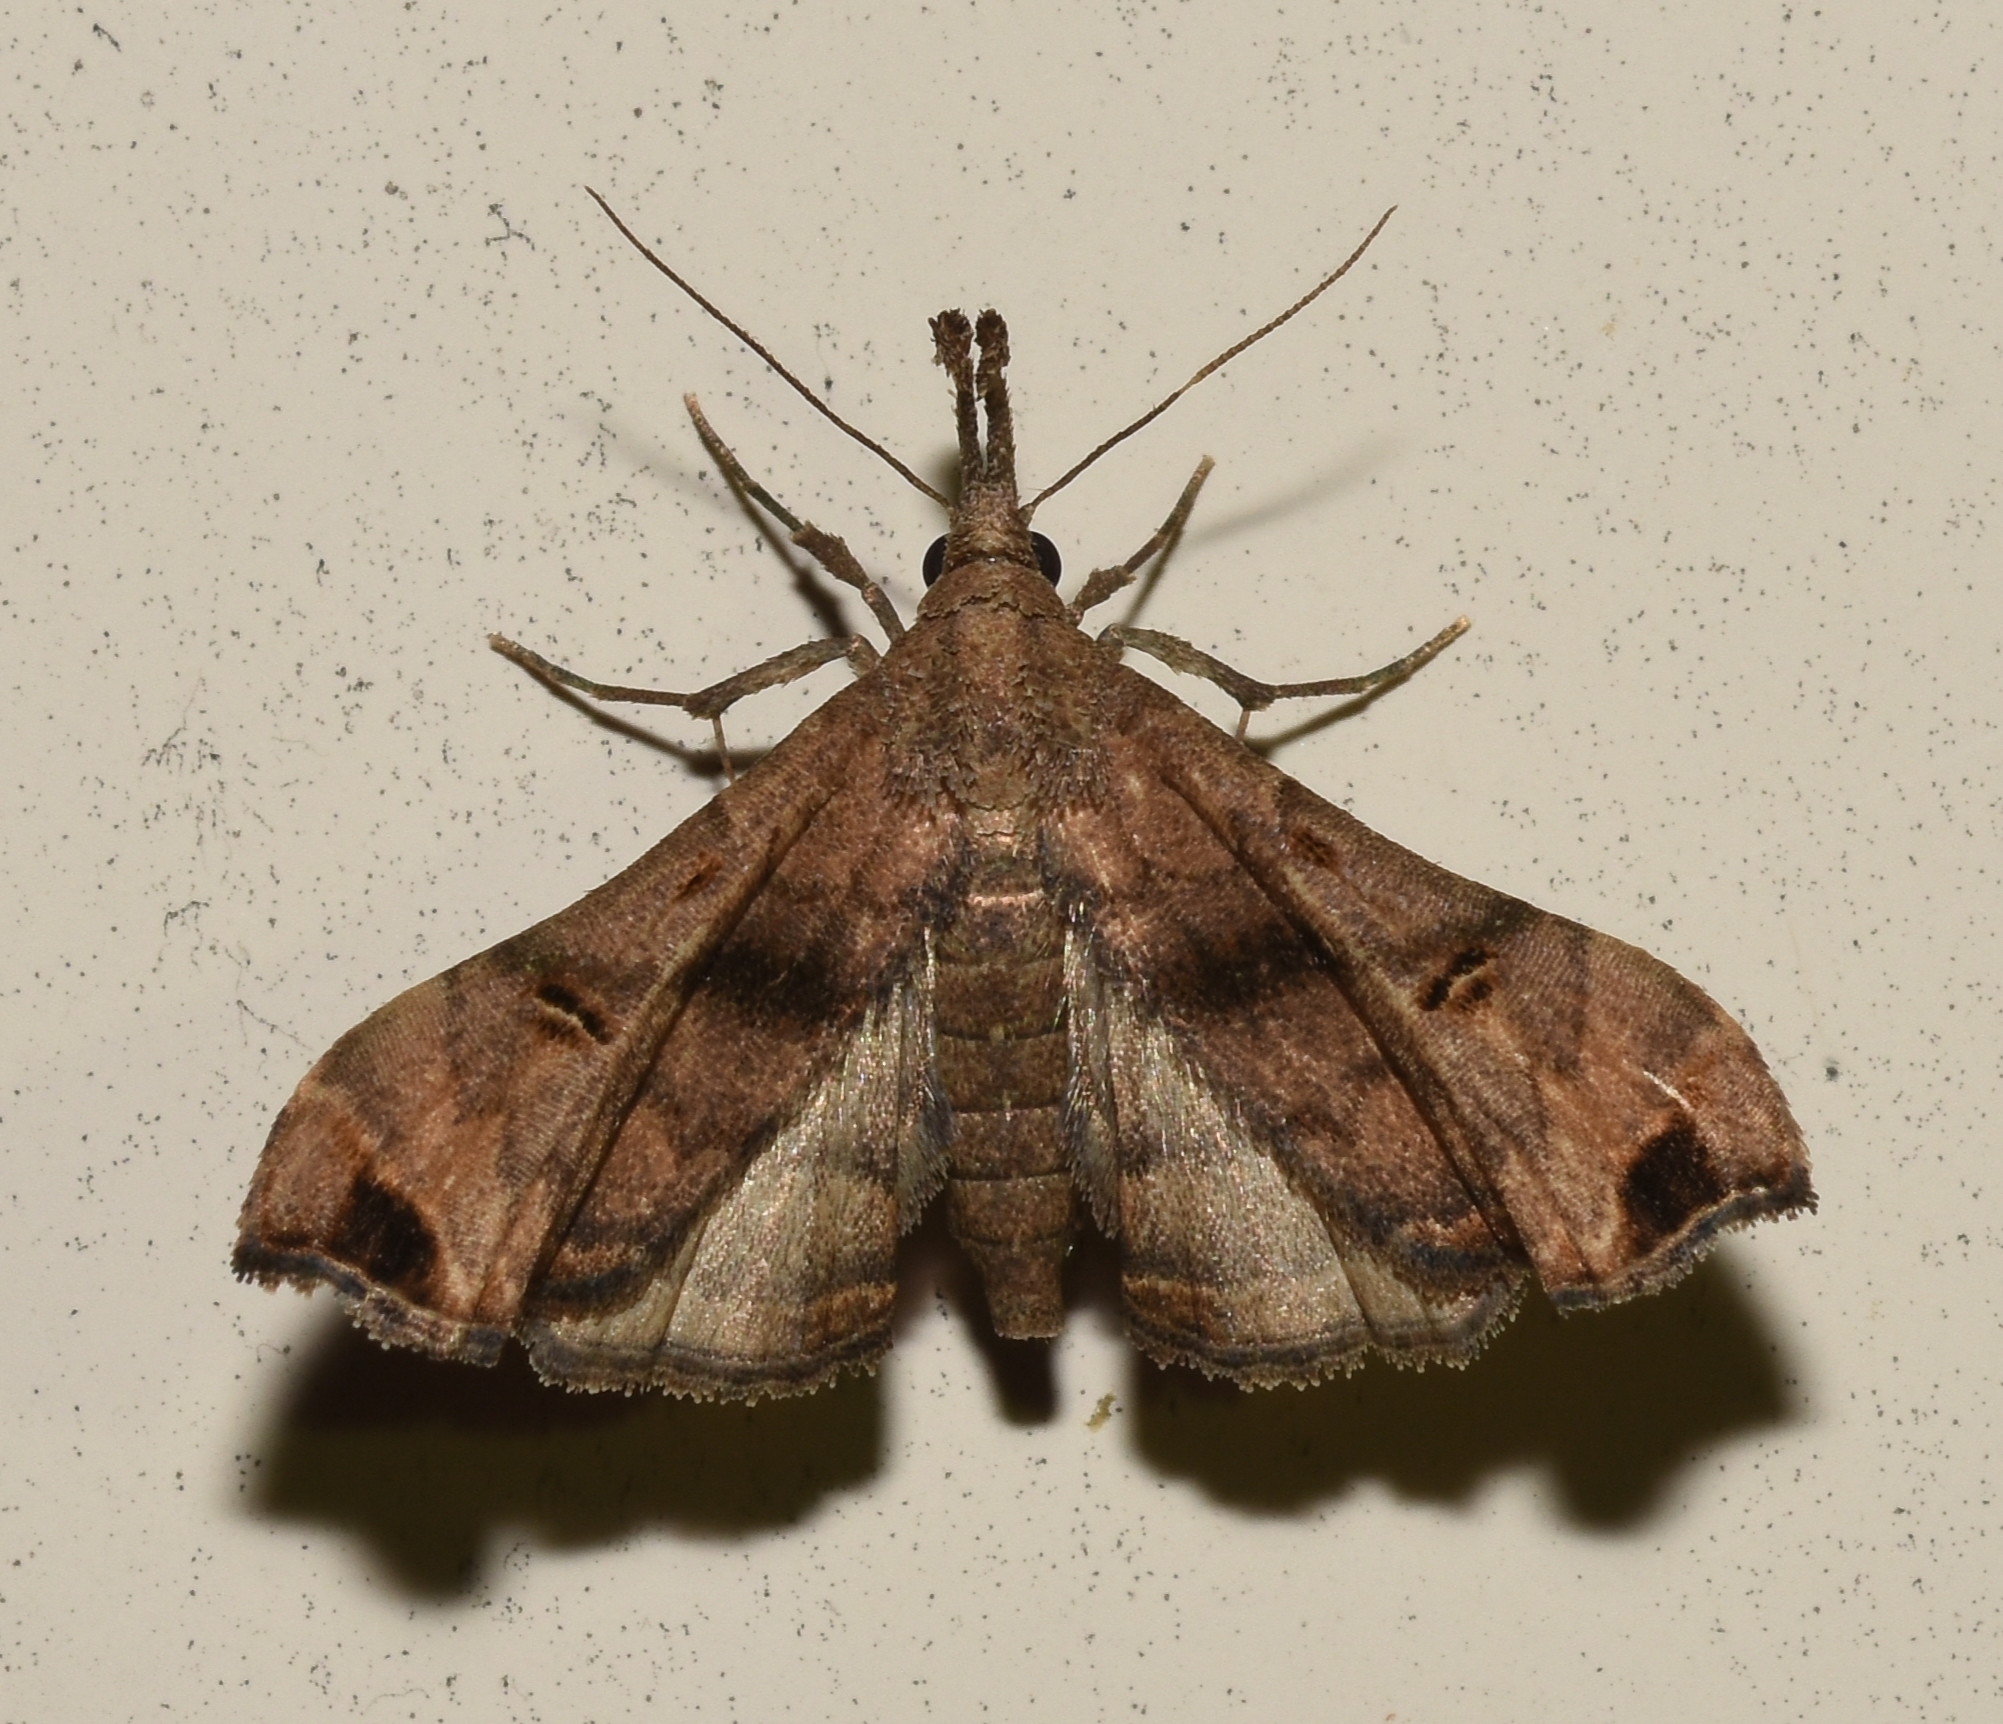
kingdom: Animalia
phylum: Arthropoda
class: Insecta
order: Lepidoptera
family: Erebidae
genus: Palthis
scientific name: Palthis asopialis
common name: Faint-spotted palthis moth
